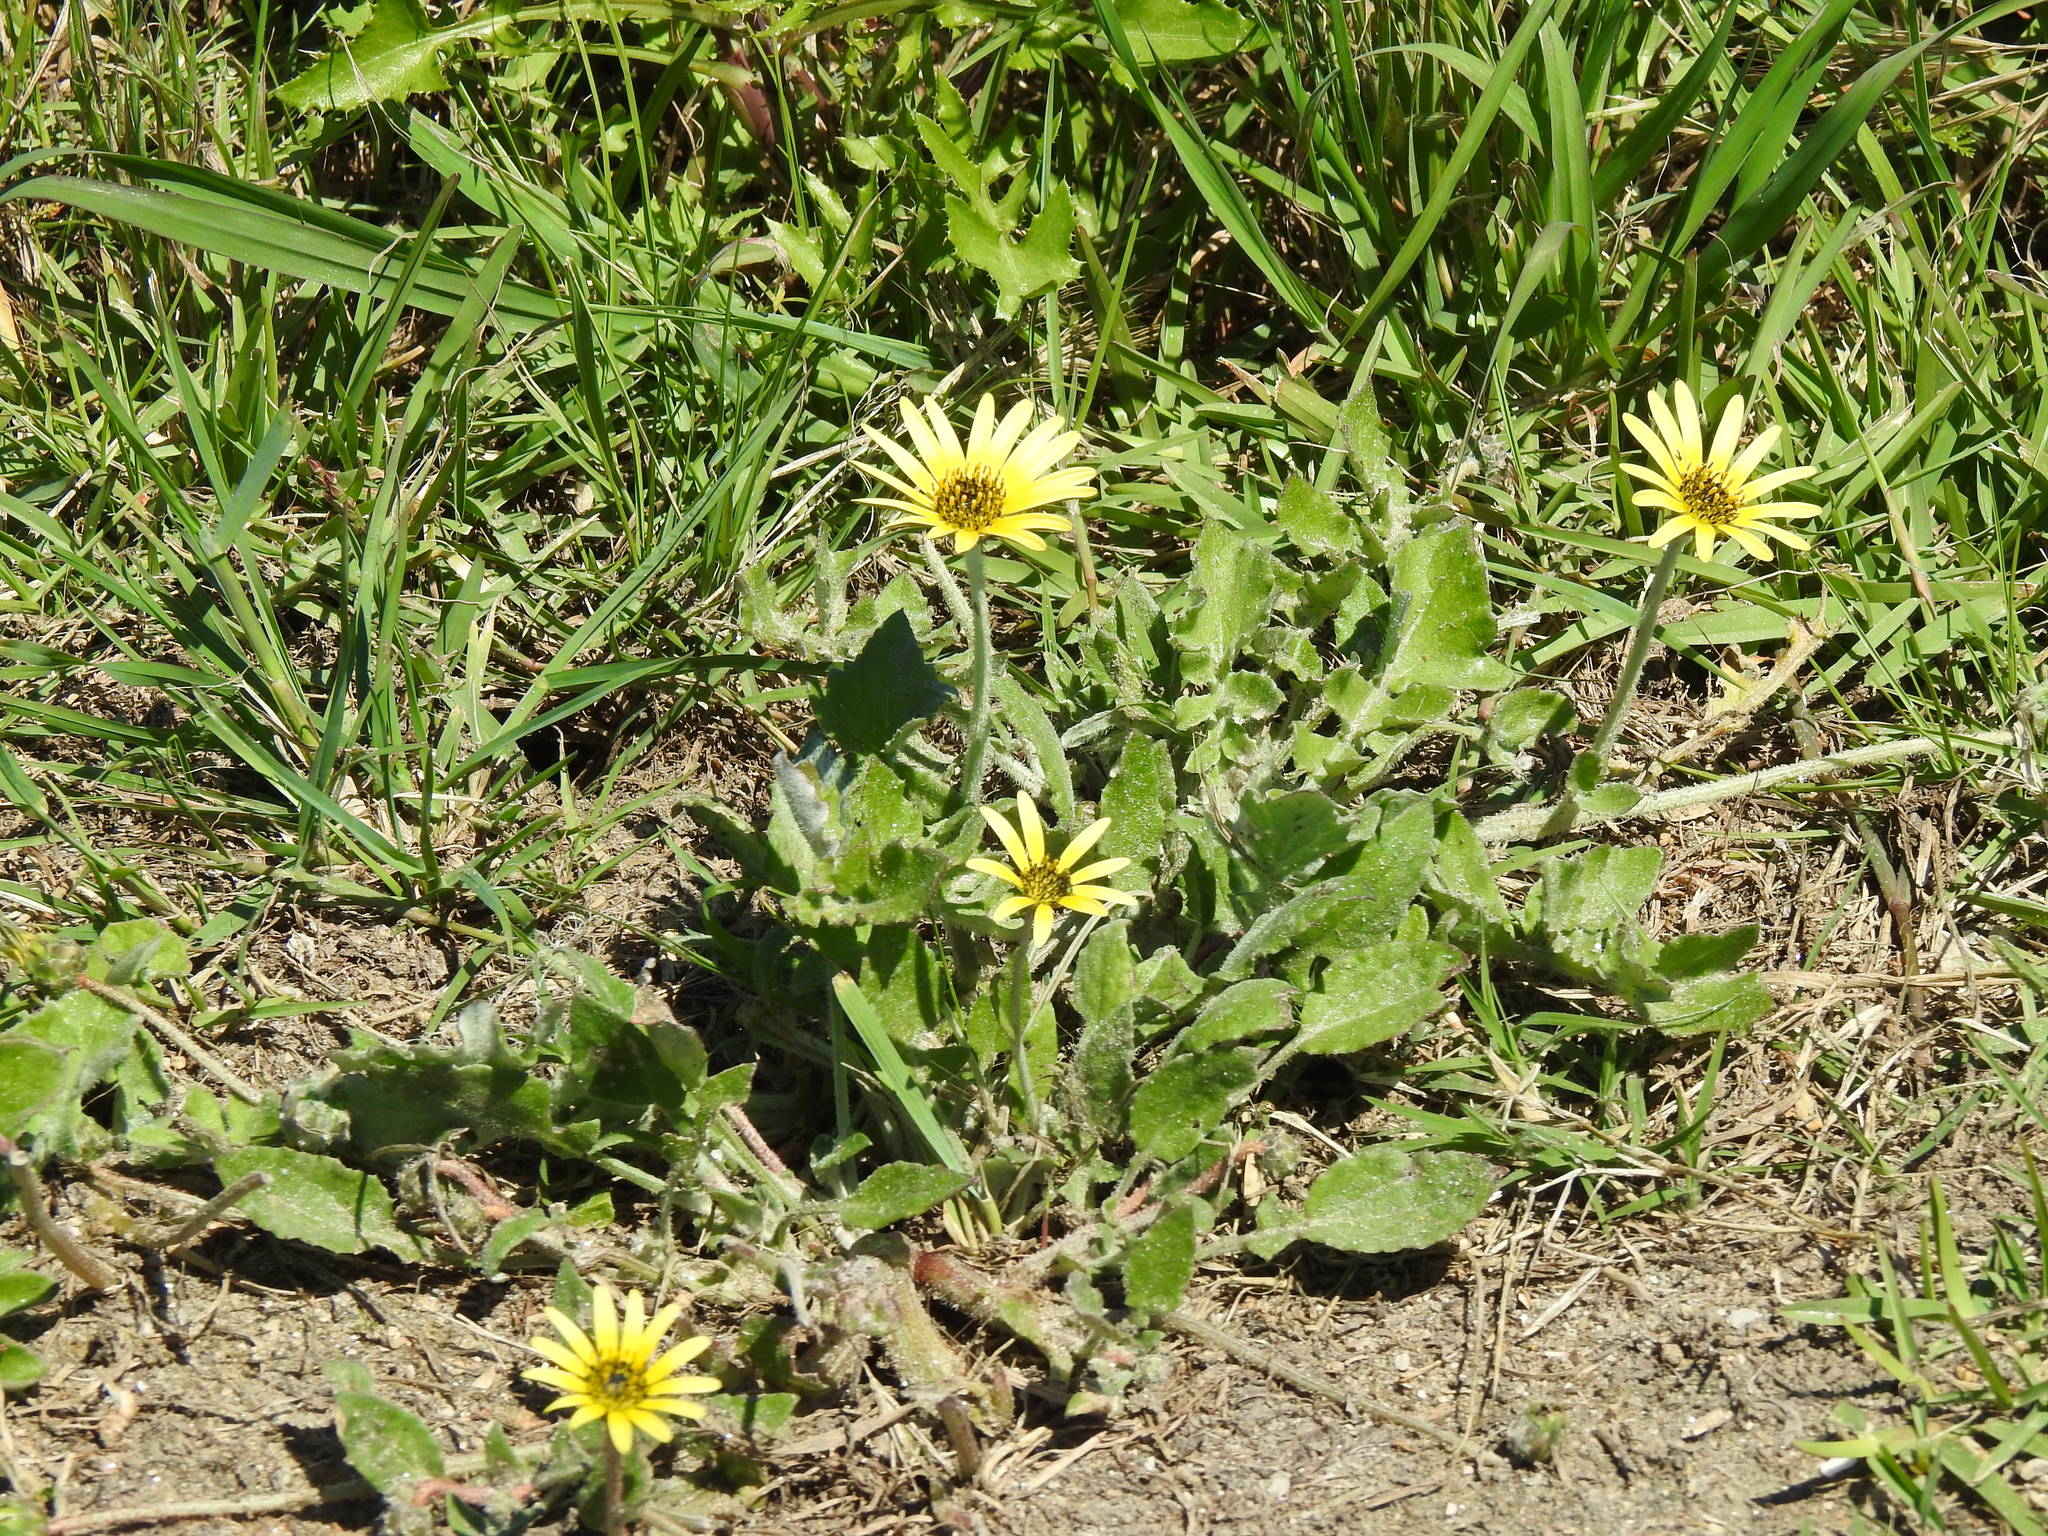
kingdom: Plantae
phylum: Tracheophyta
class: Magnoliopsida
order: Asterales
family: Asteraceae
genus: Arctotheca
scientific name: Arctotheca calendula
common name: Capeweed
